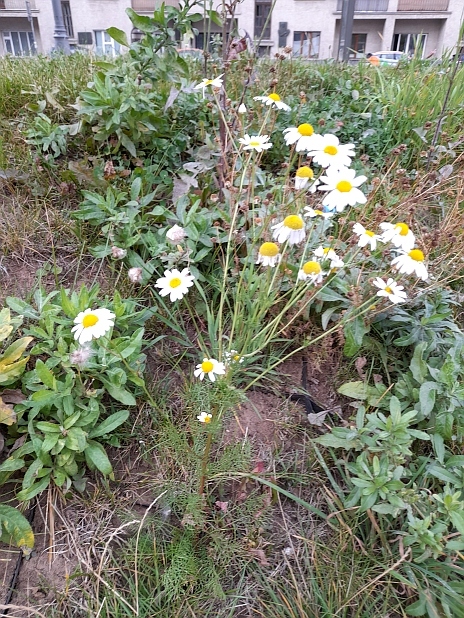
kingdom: Plantae
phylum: Tracheophyta
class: Magnoliopsida
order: Asterales
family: Asteraceae
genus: Tripleurospermum
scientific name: Tripleurospermum inodorum
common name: Scentless mayweed
